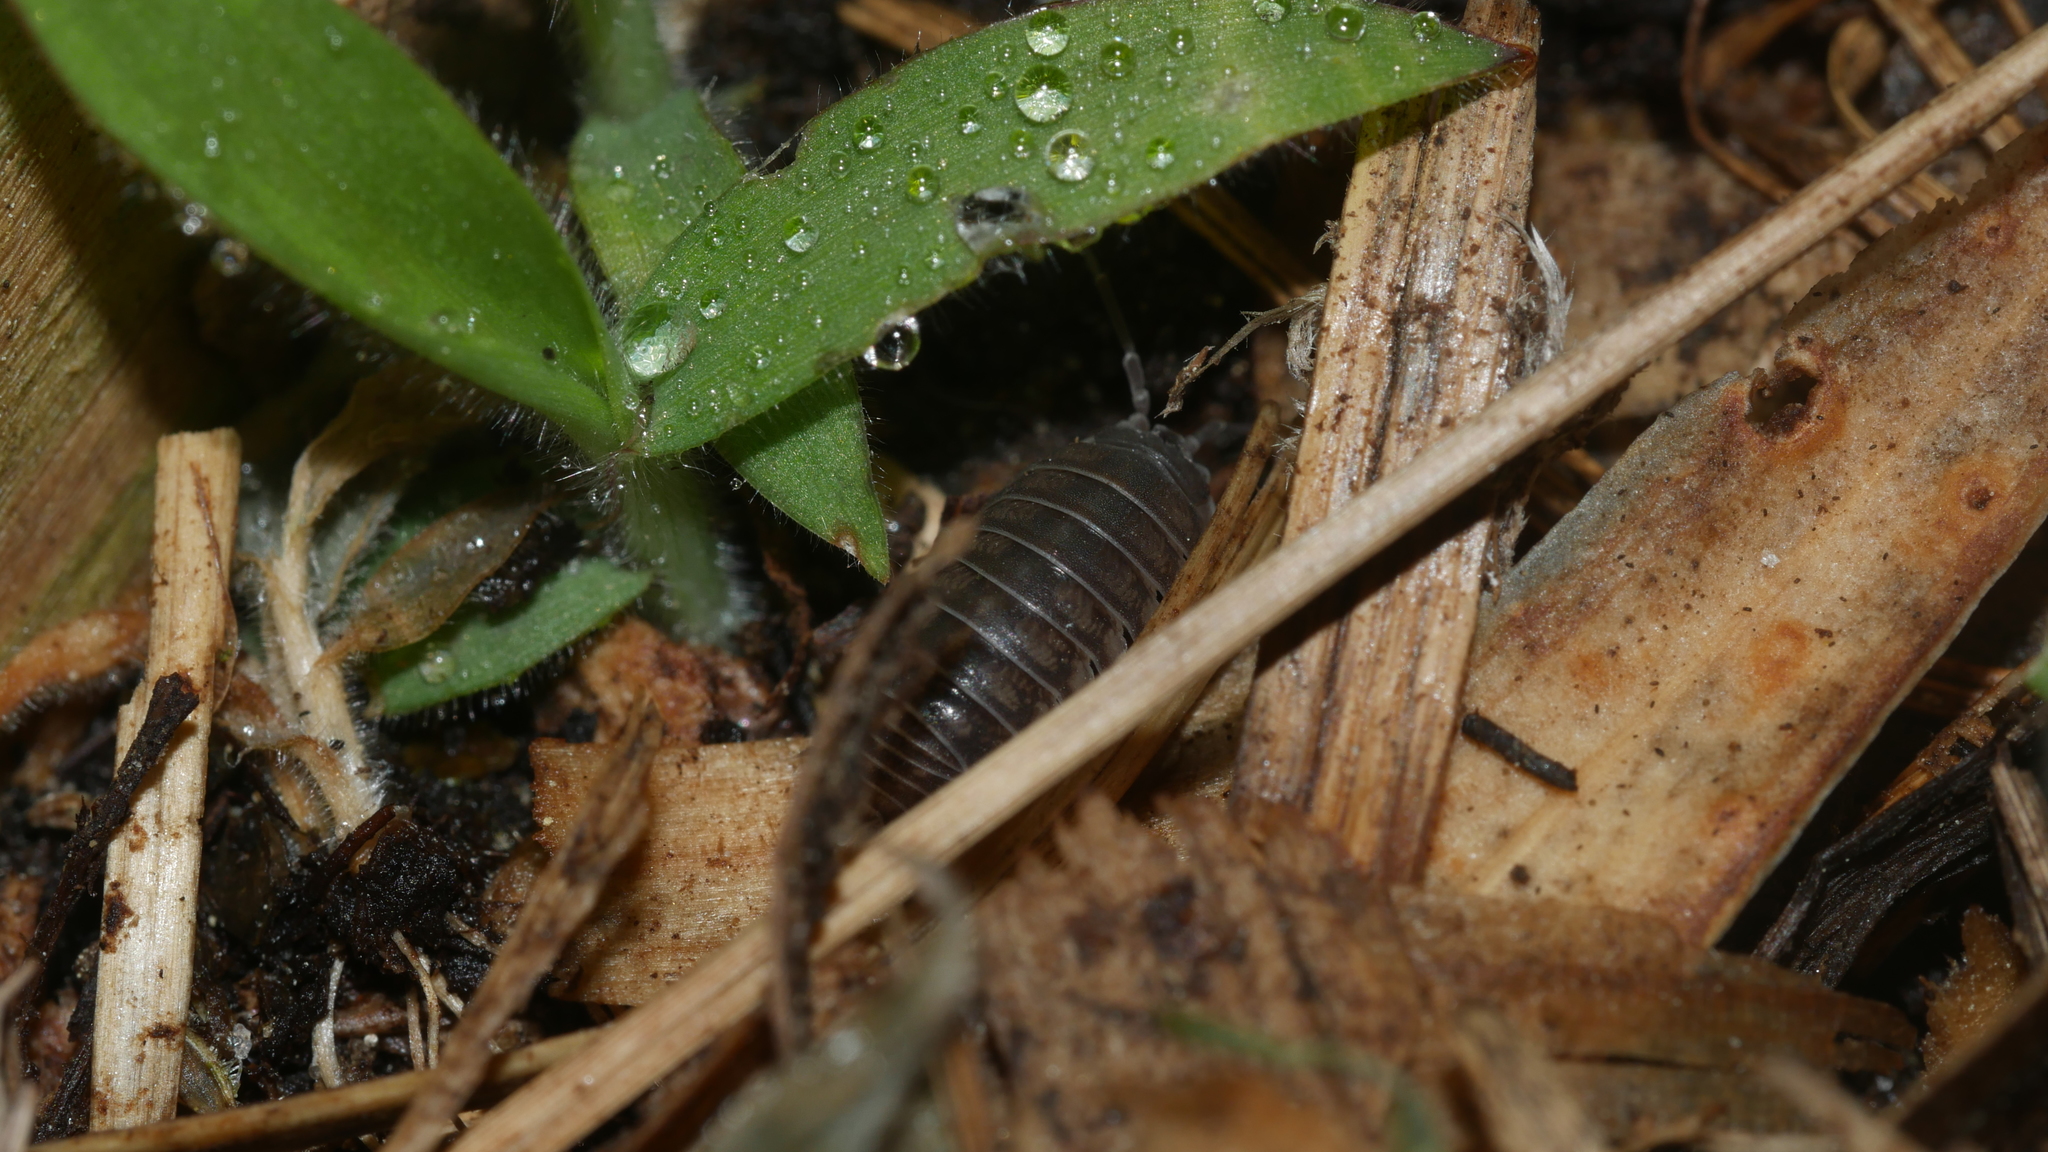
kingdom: Animalia
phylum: Arthropoda
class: Malacostraca
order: Isopoda
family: Armadillidiidae
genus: Armadillidium
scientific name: Armadillidium nasatum
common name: Isopod
